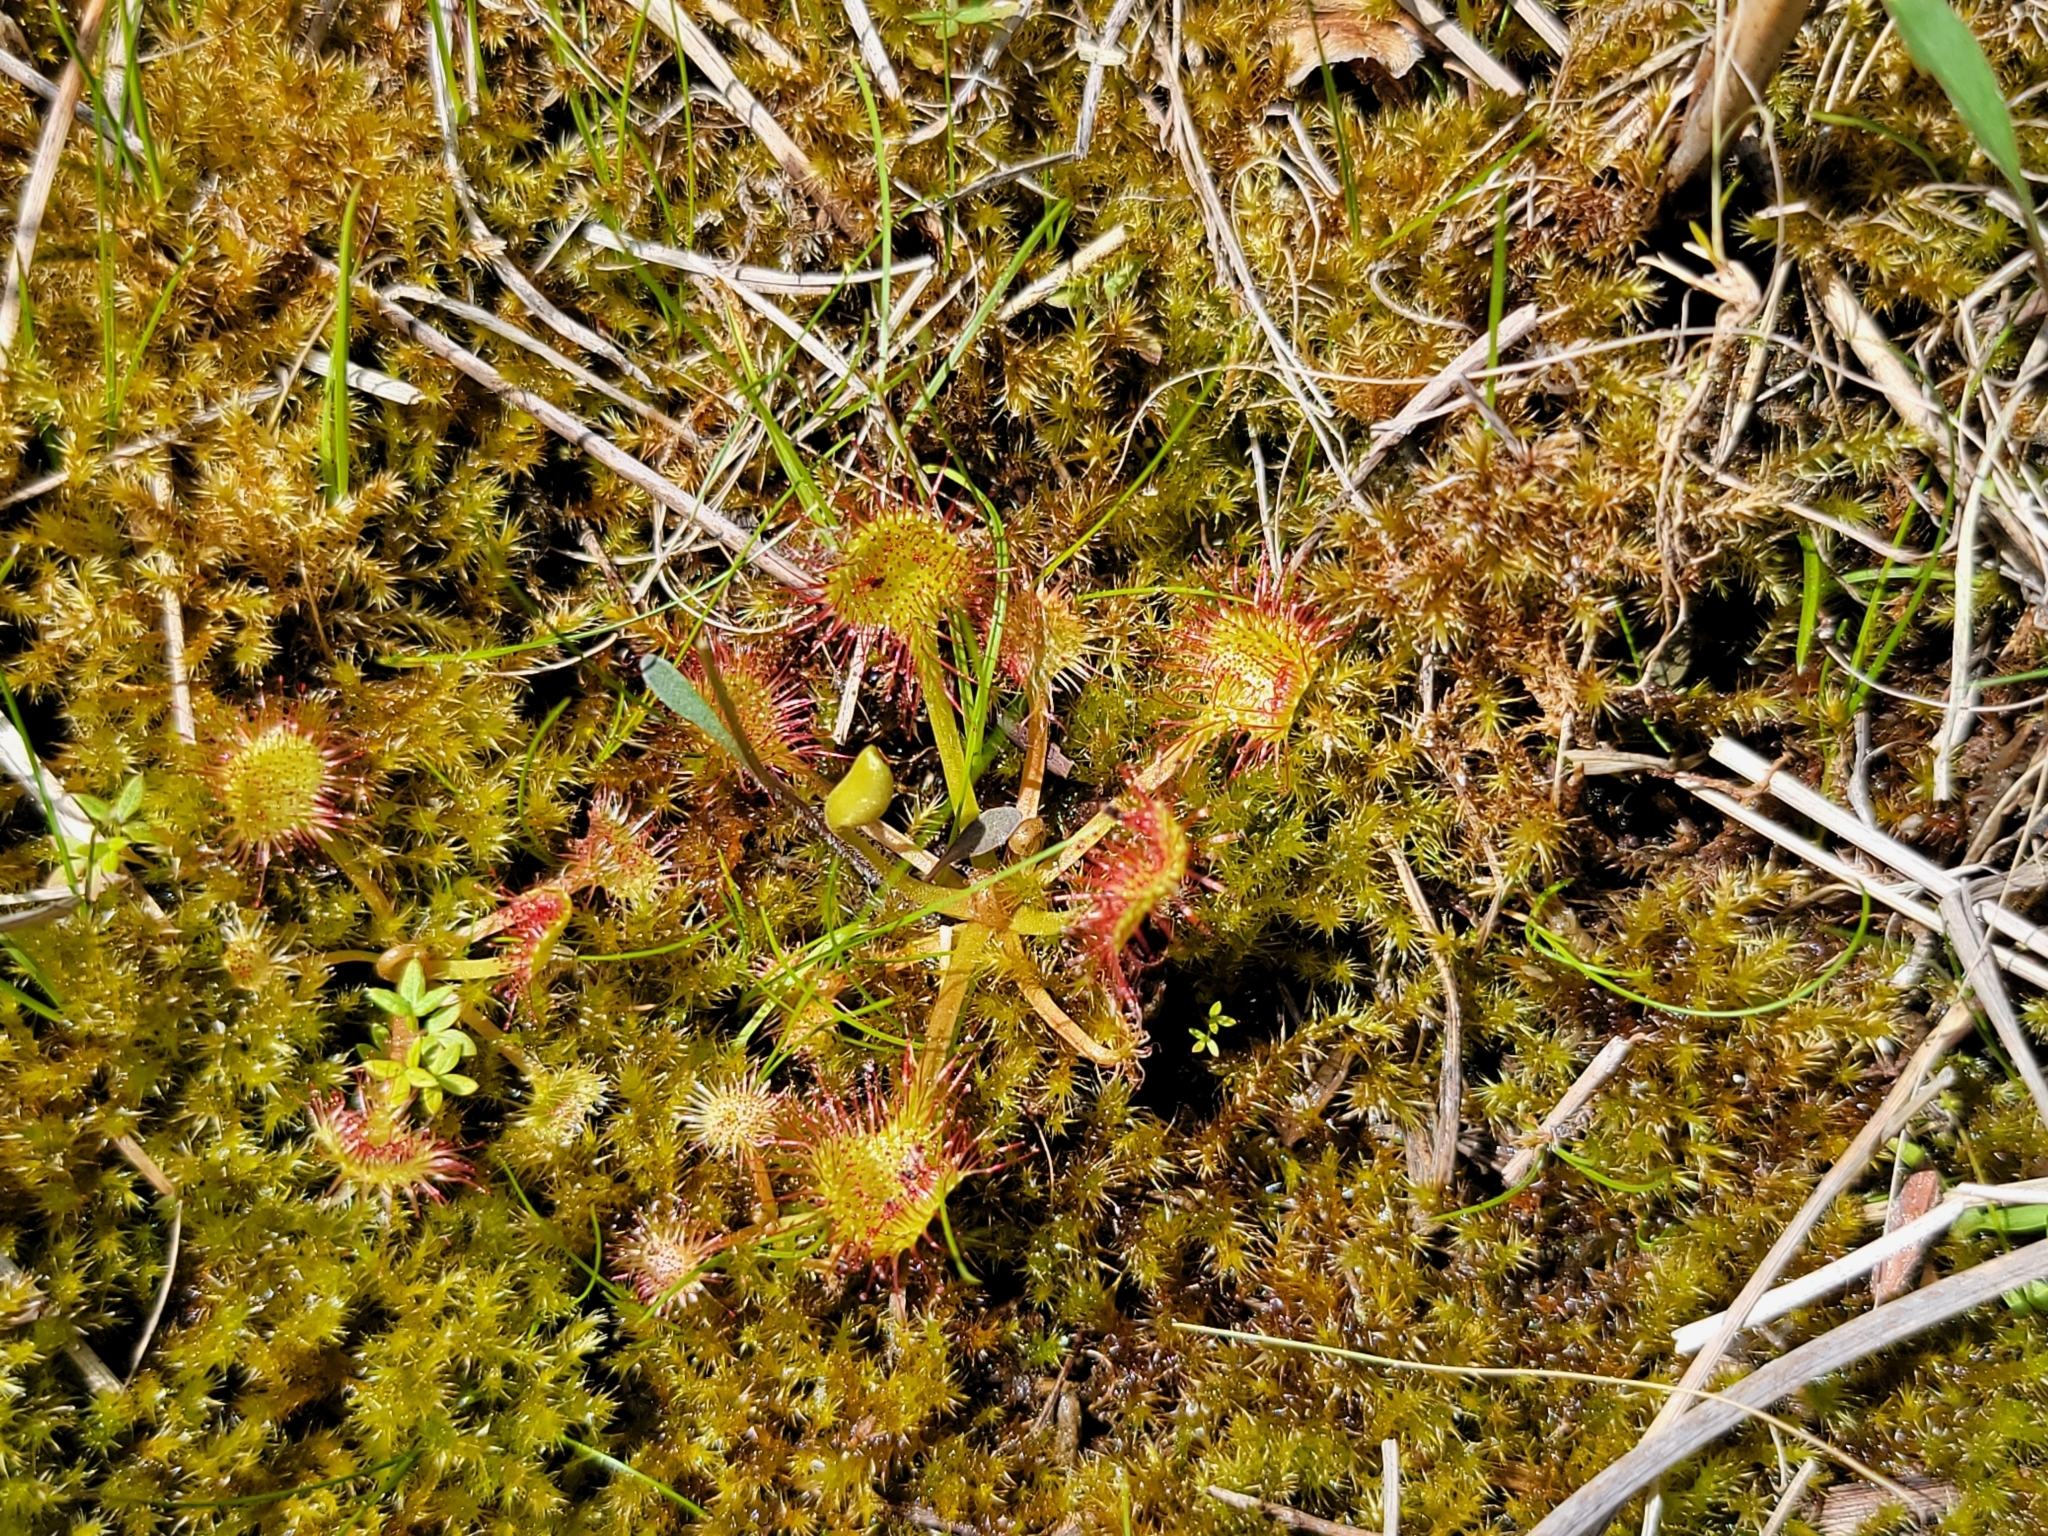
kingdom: Plantae
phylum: Tracheophyta
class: Magnoliopsida
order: Caryophyllales
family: Droseraceae
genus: Drosera
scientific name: Drosera rotundifolia
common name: Round-leaved sundew
